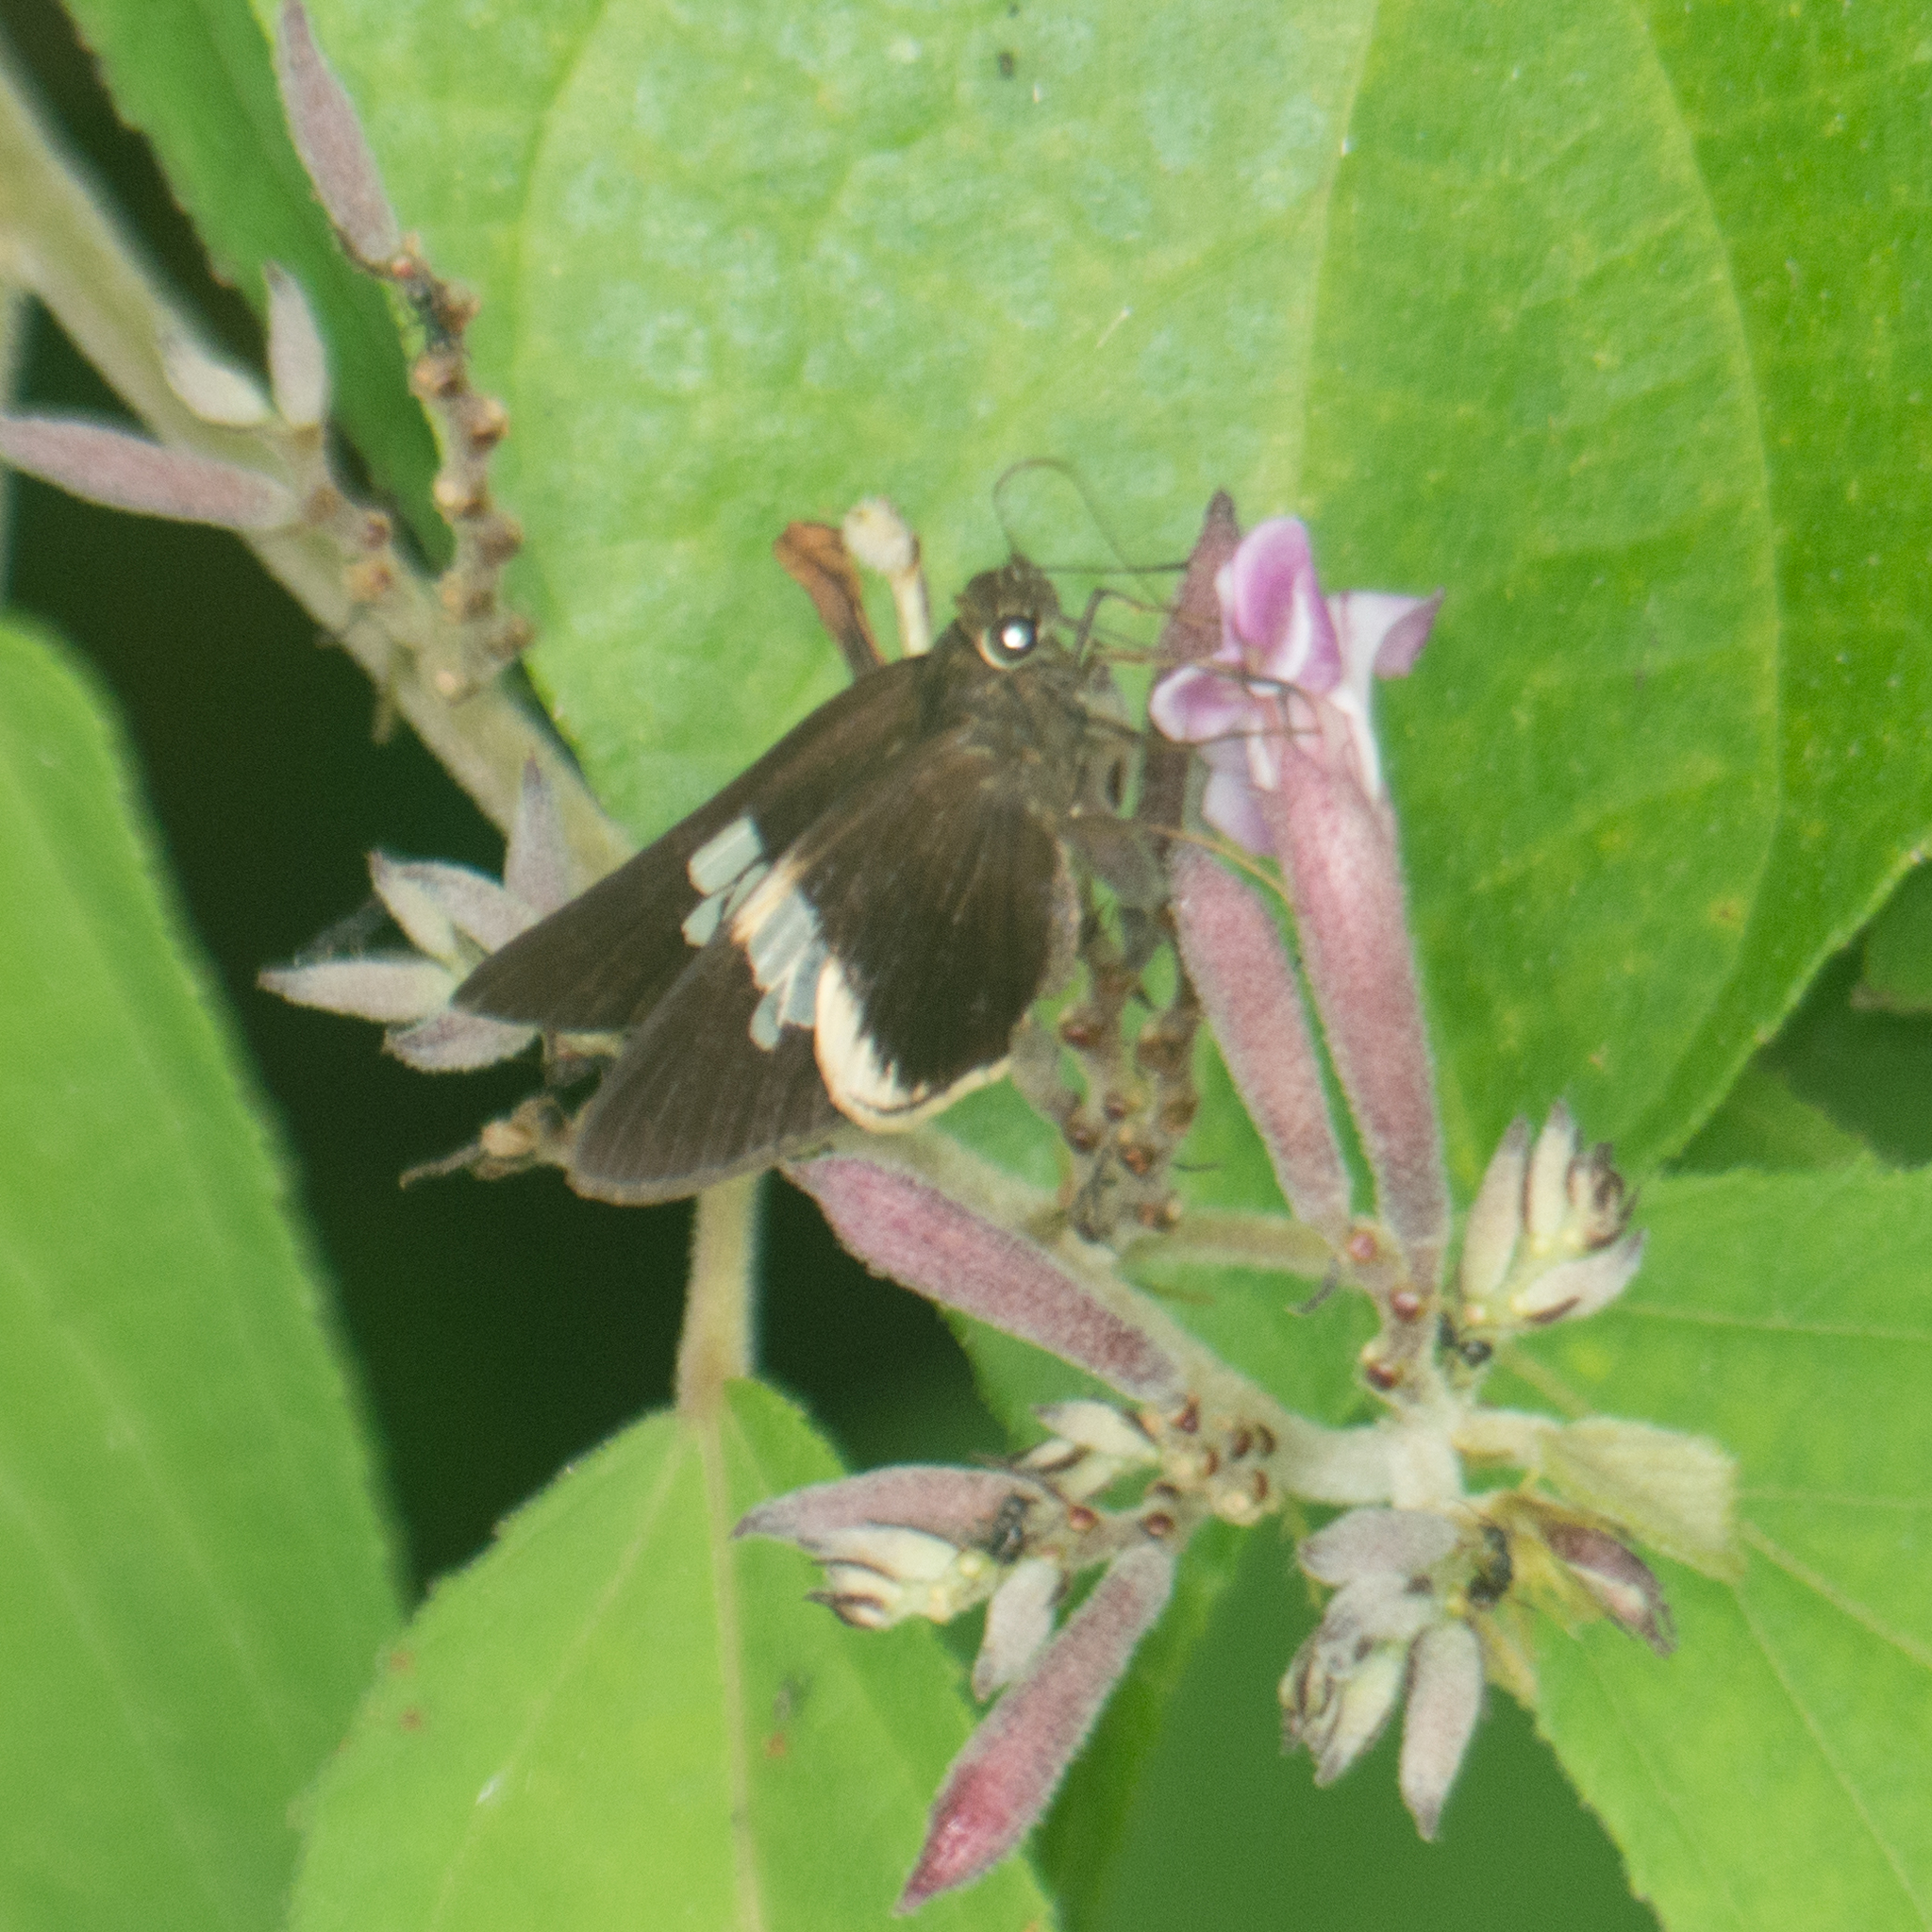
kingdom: Animalia
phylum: Arthropoda
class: Insecta
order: Lepidoptera
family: Hesperiidae
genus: Lotongus
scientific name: Lotongus calathus
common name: White-tipped palmer
